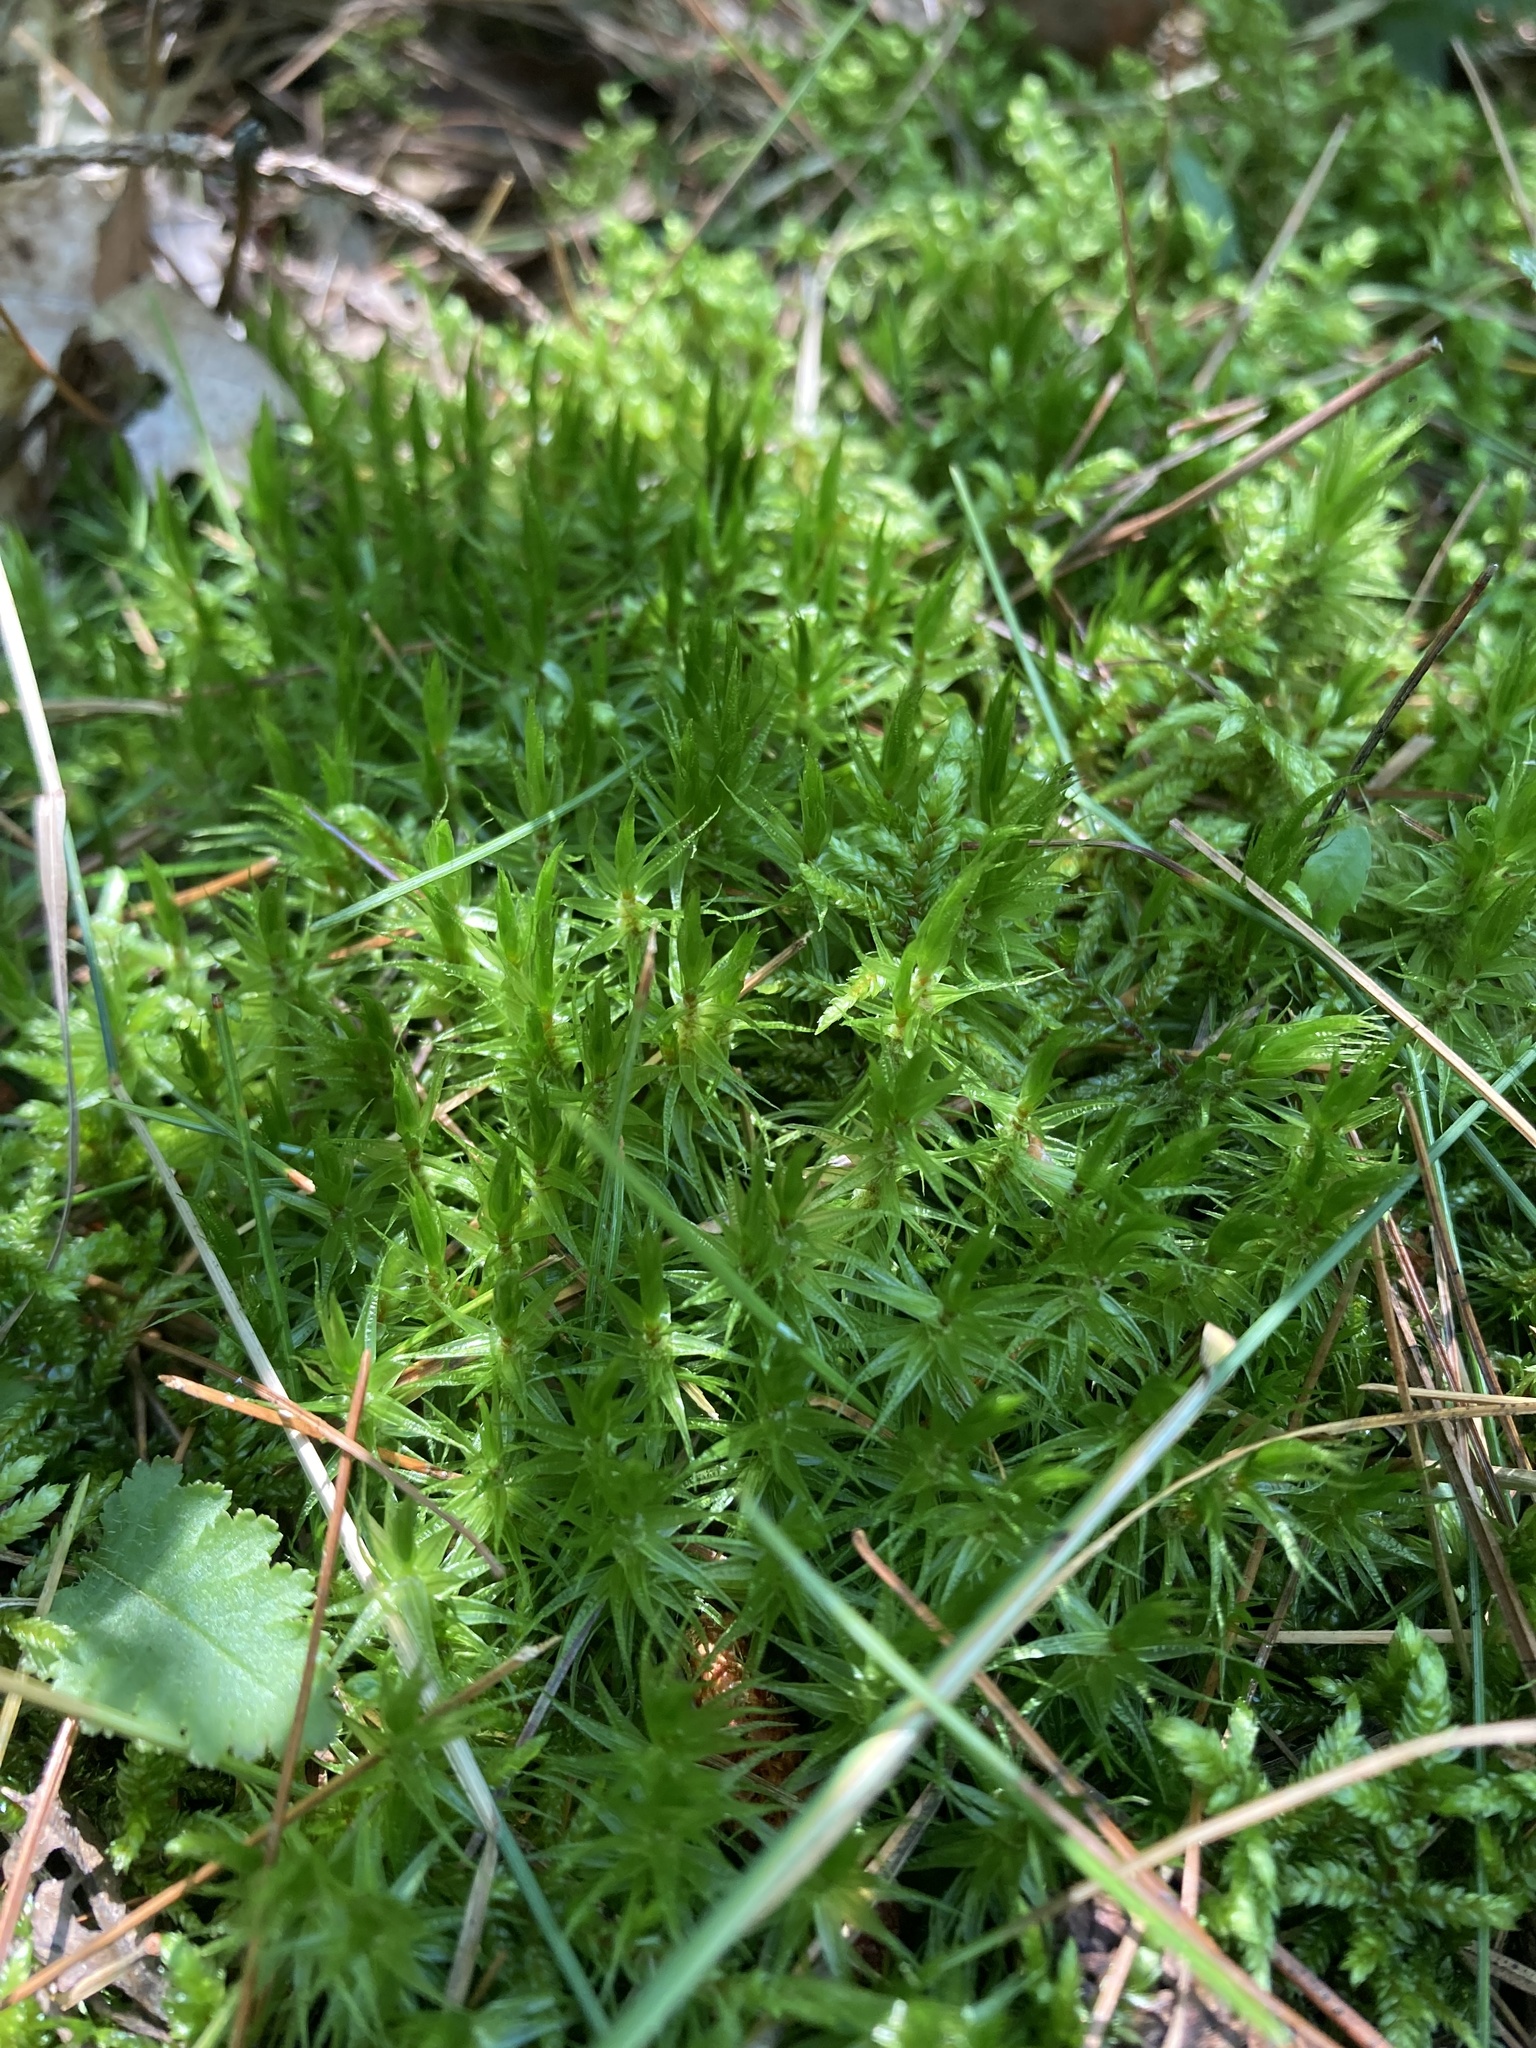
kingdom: Plantae
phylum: Bryophyta
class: Bryopsida
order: Dicranales
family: Dicranaceae
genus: Dicranum
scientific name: Dicranum polysetum
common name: Rugose fork-moss
